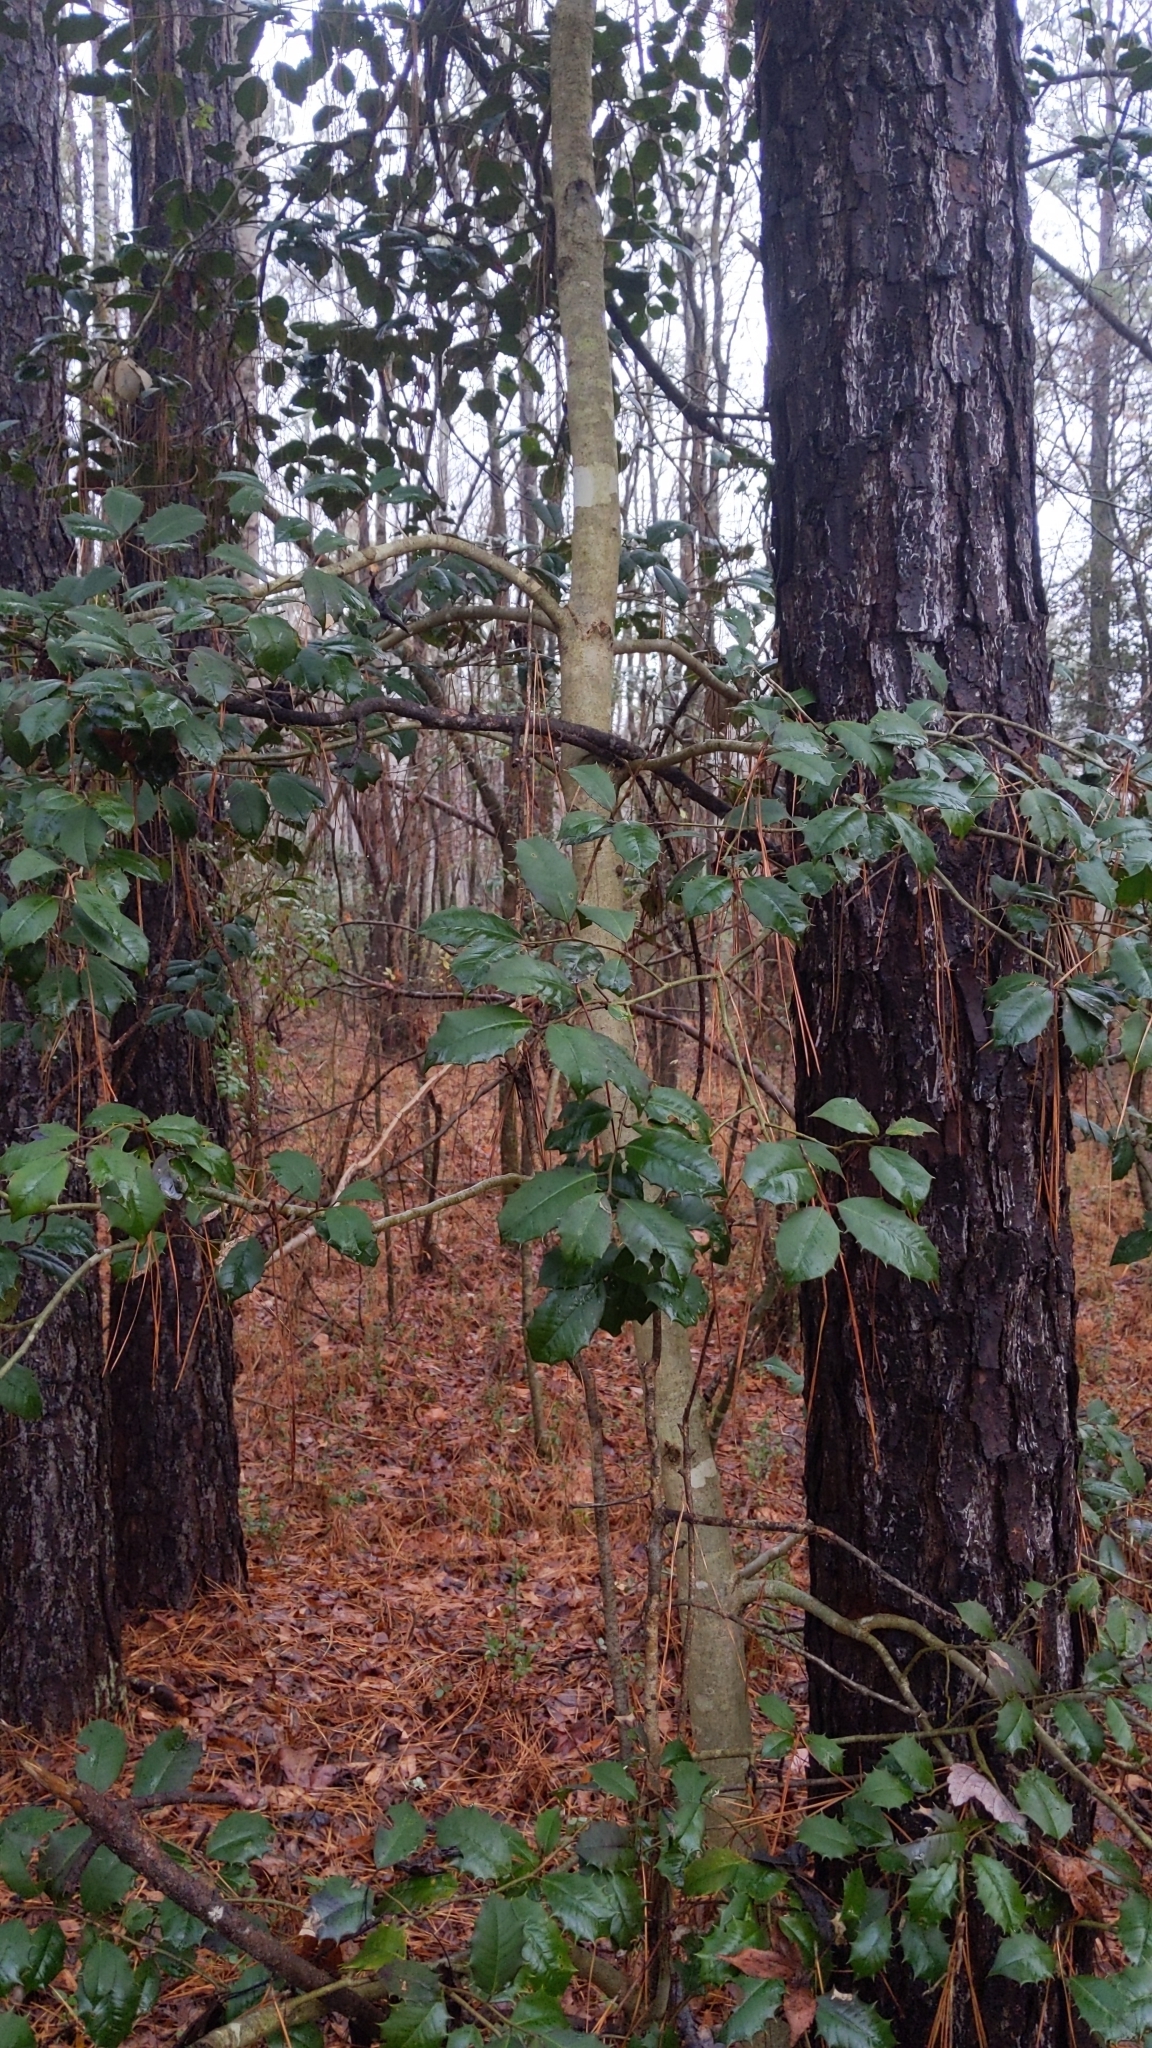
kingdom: Plantae
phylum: Tracheophyta
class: Magnoliopsida
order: Aquifoliales
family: Aquifoliaceae
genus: Ilex
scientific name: Ilex opaca
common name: American holly
